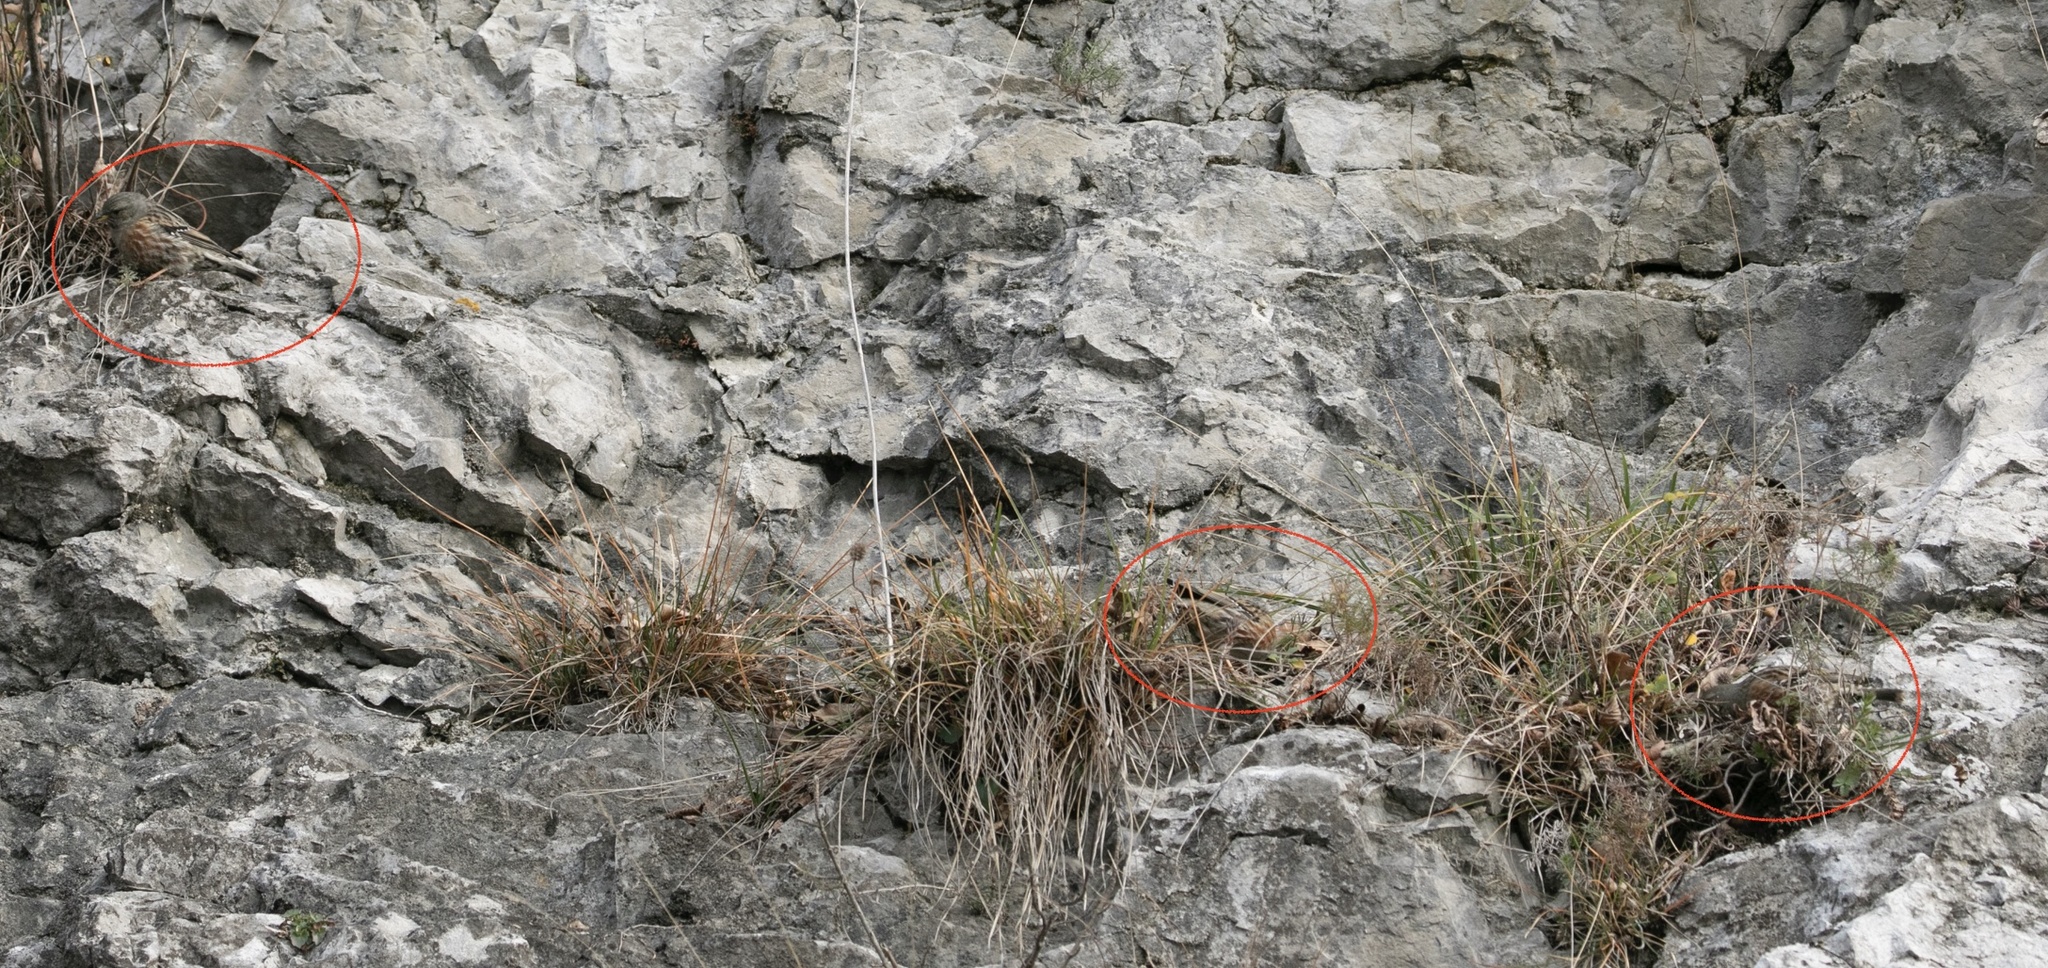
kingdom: Animalia
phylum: Chordata
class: Aves
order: Passeriformes
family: Prunellidae
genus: Prunella
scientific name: Prunella collaris
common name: Alpine accentor
